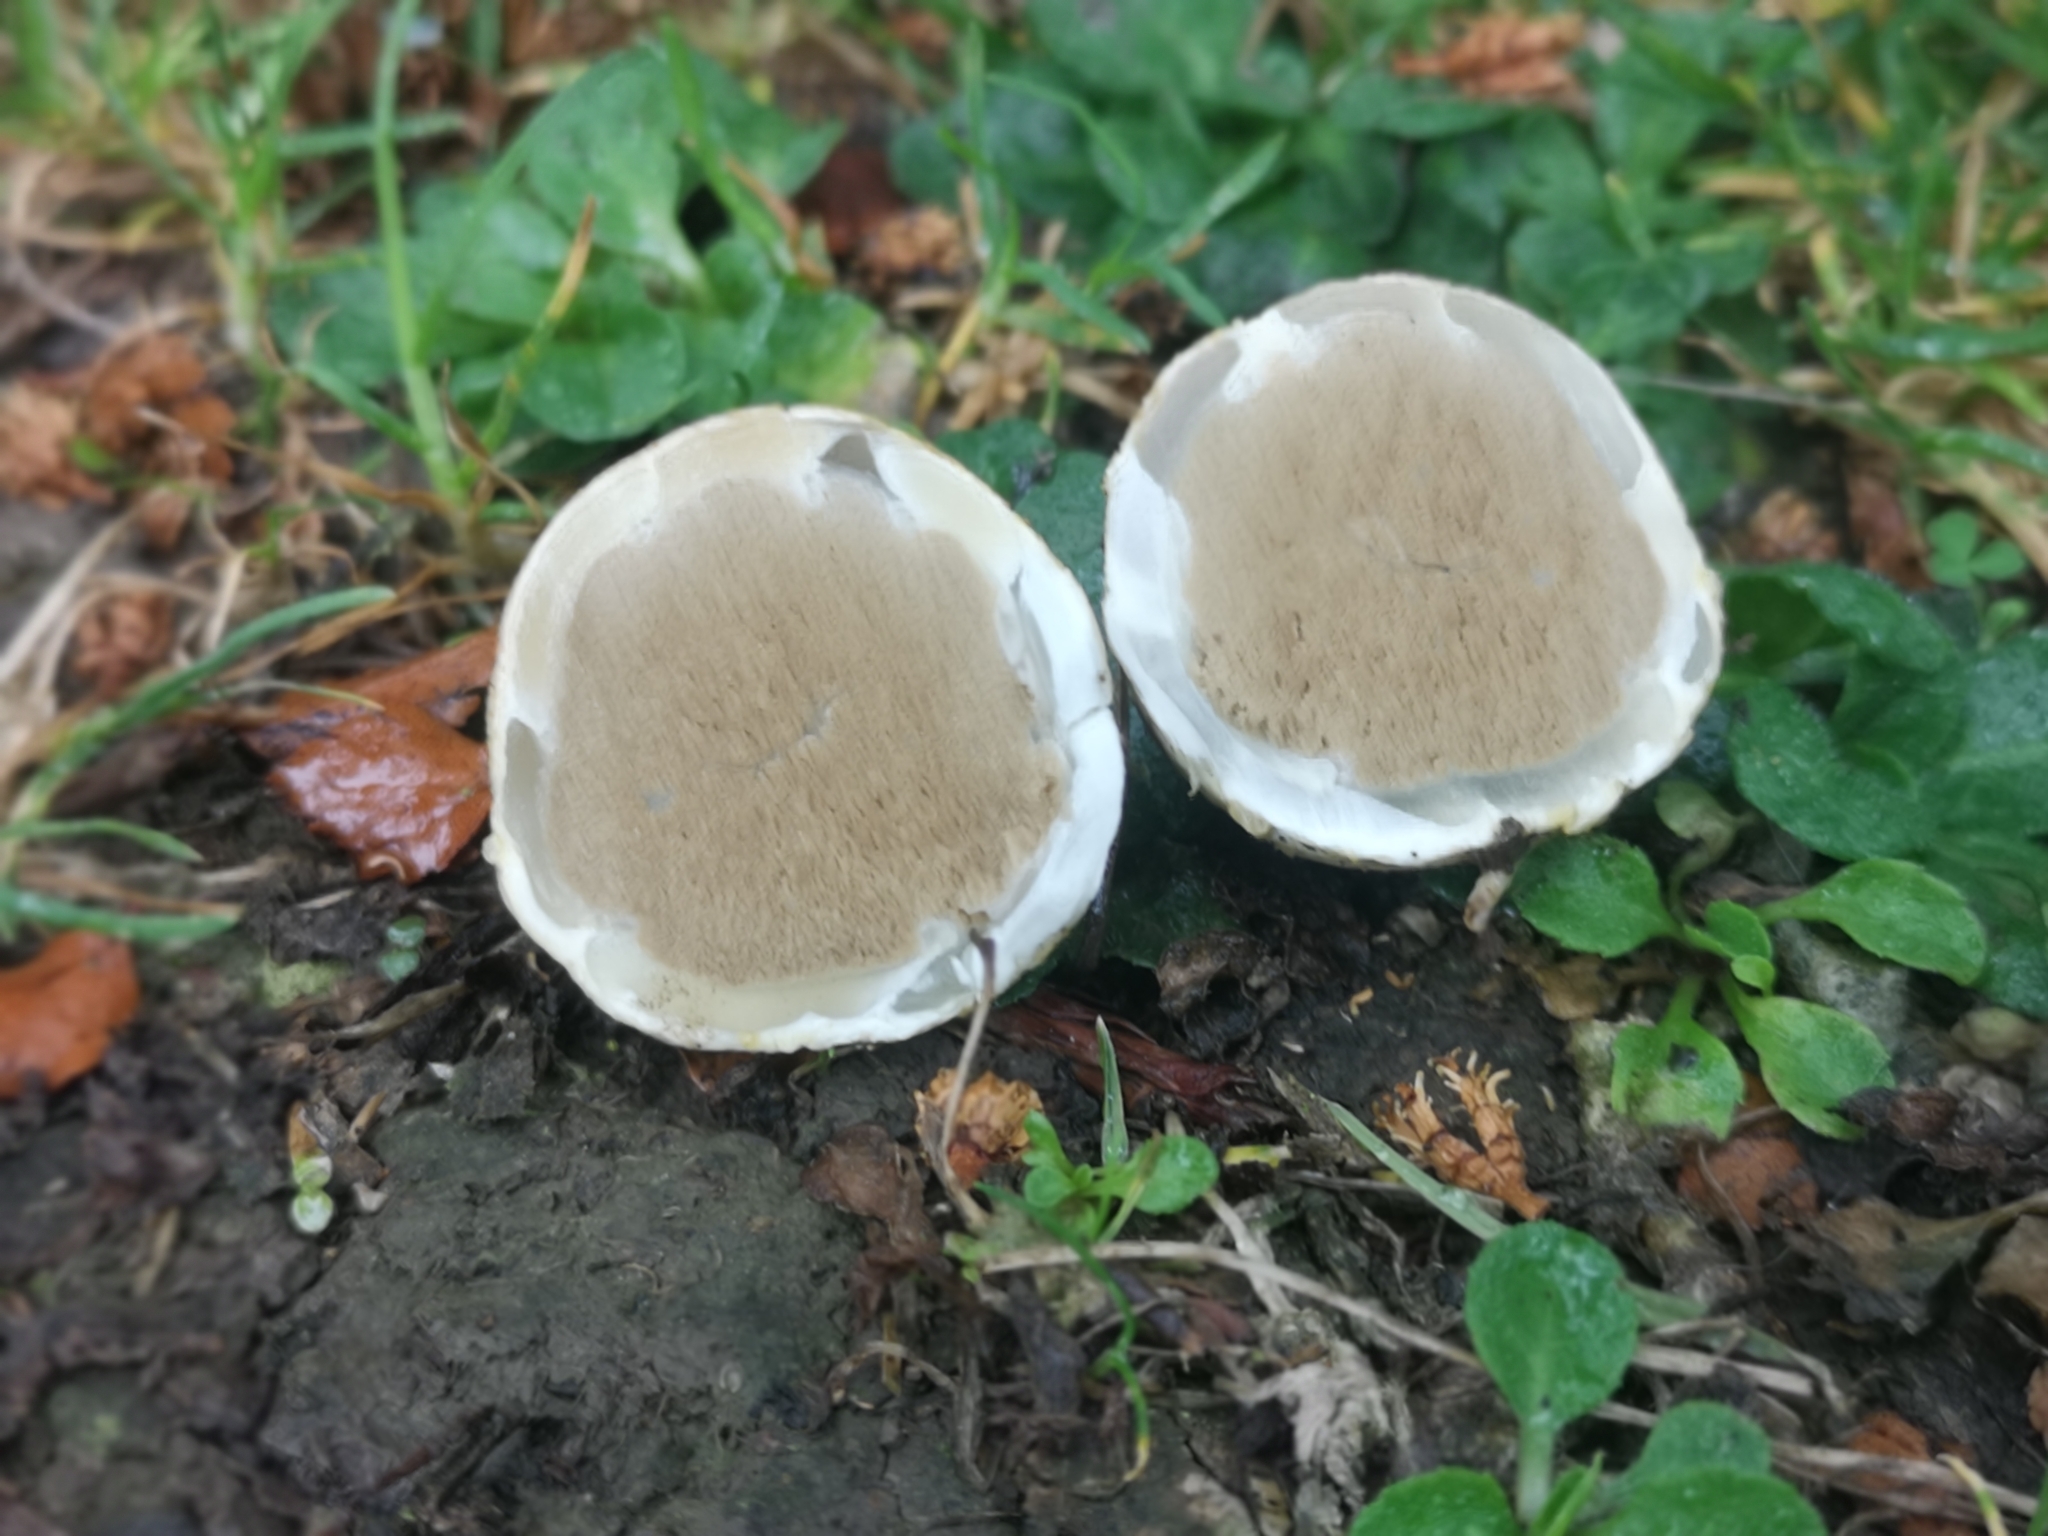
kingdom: Fungi
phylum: Basidiomycota
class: Agaricomycetes
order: Phallales
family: Phallaceae
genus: Ileodictyon
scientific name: Ileodictyon cibarium
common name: Basket fungus
